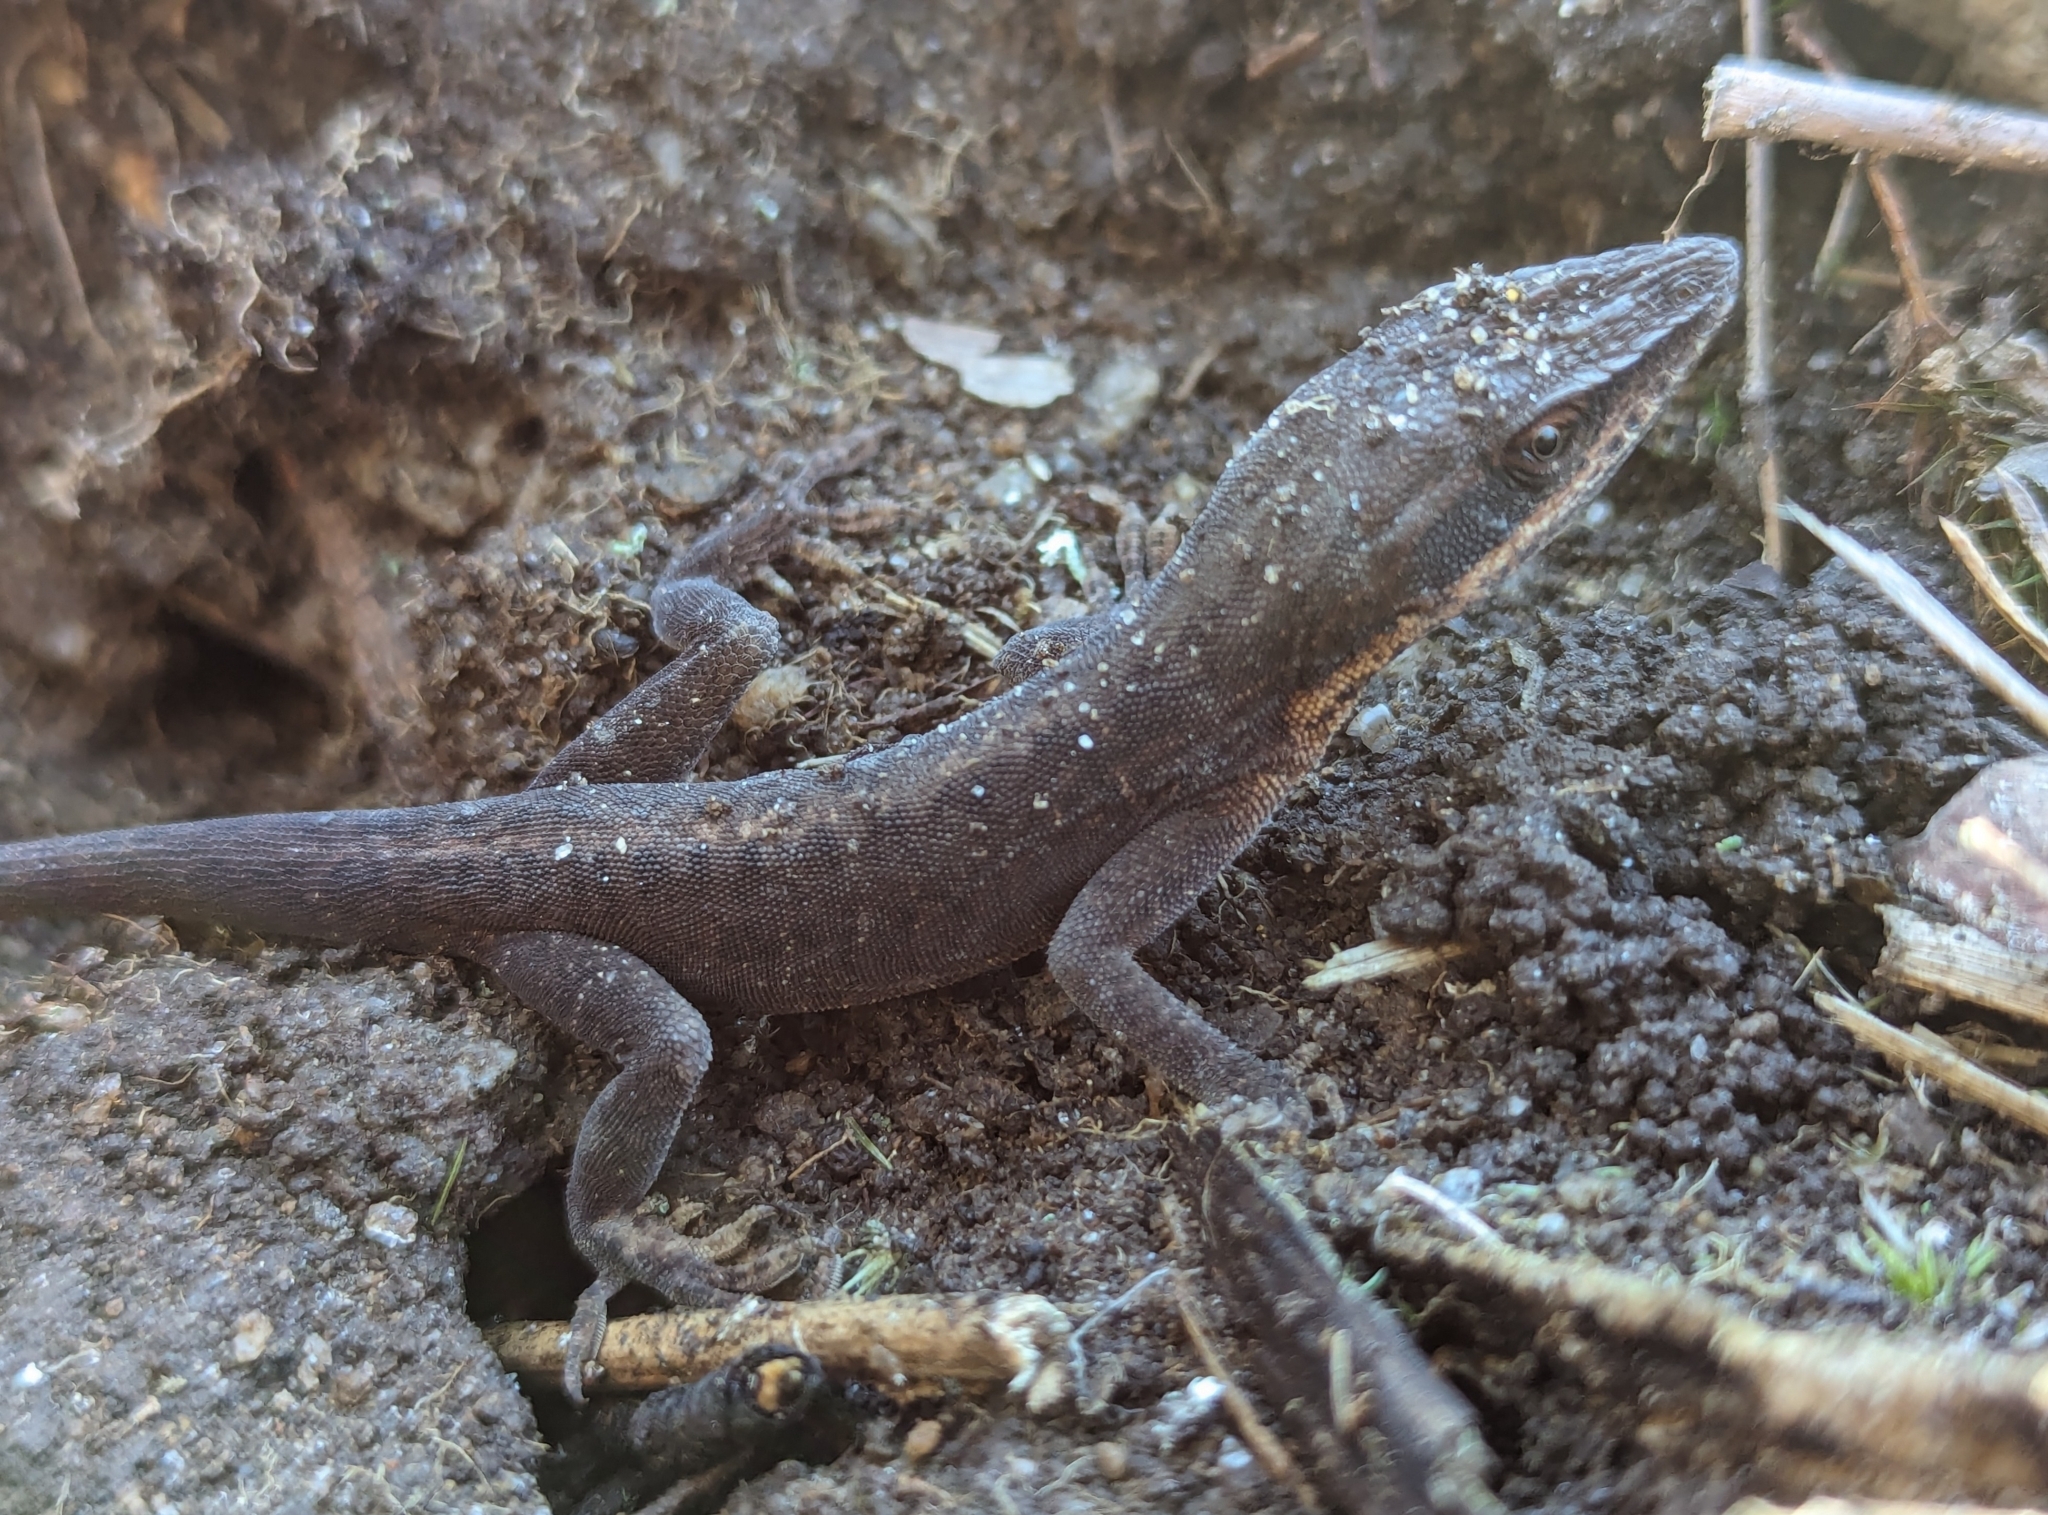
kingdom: Animalia
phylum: Chordata
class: Squamata
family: Dactyloidae
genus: Anolis
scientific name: Anolis carolinensis
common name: Green anole
